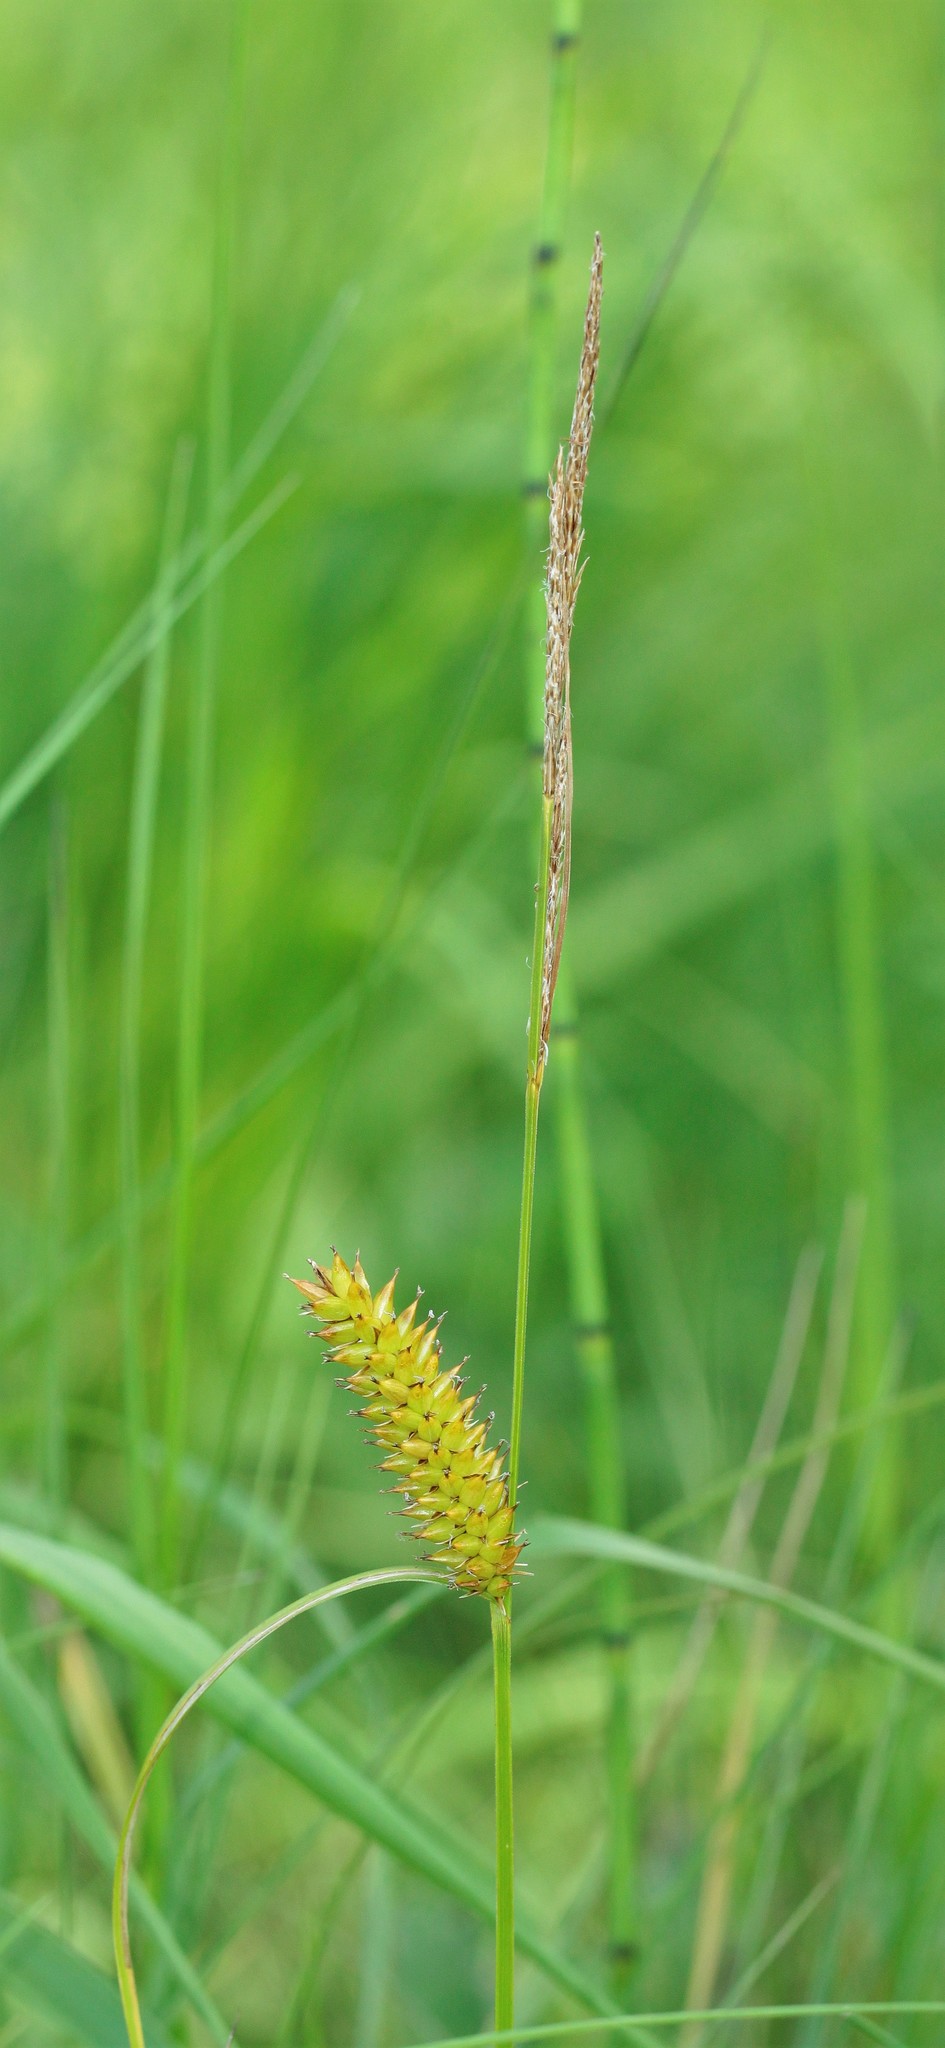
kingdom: Plantae
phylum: Tracheophyta
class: Liliopsida
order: Poales
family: Cyperaceae
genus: Carex
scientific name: Carex vesicaria
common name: Bladder-sedge
